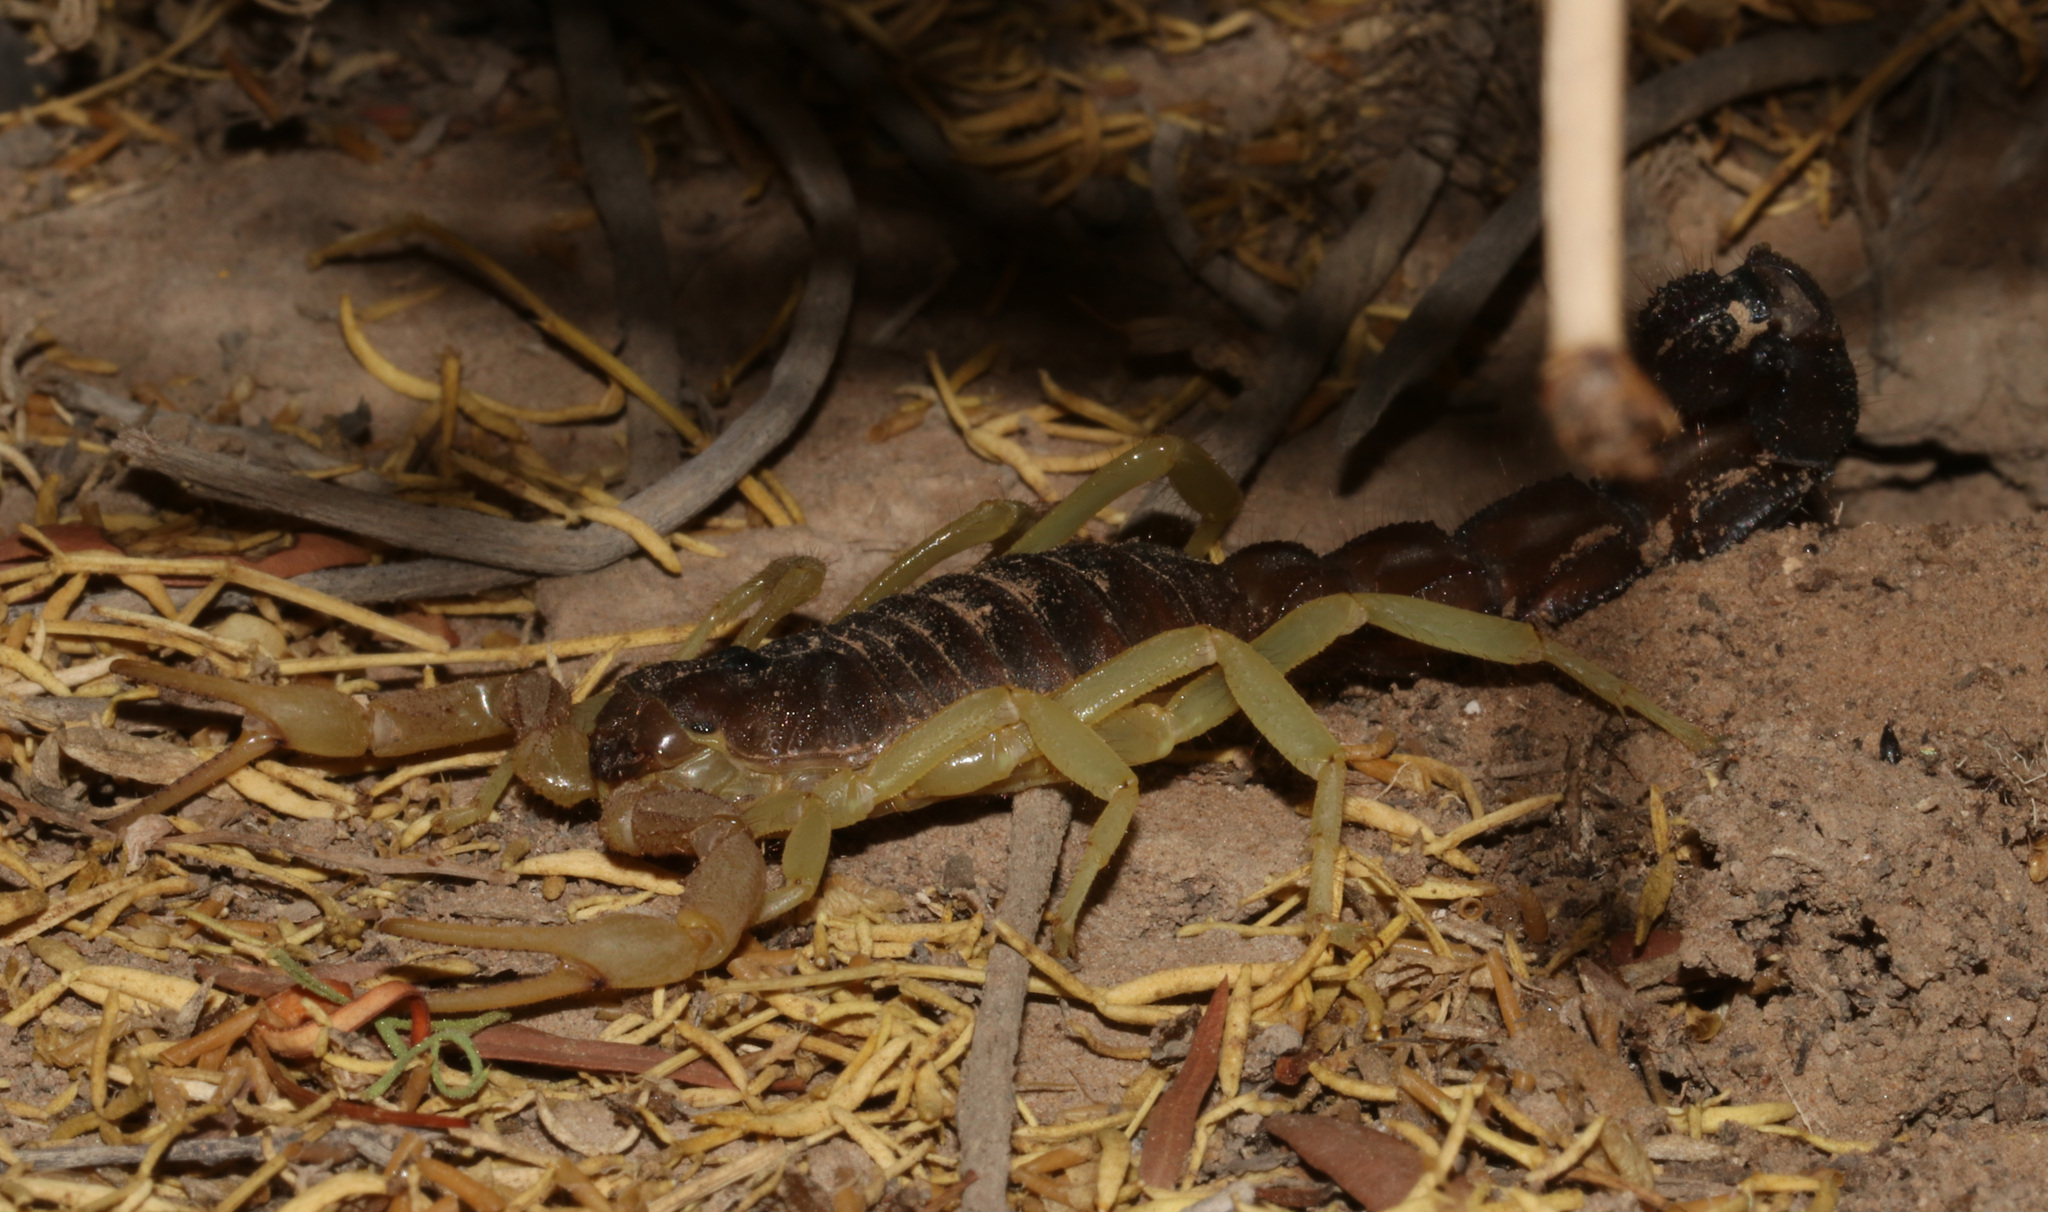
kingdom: Animalia
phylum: Arthropoda
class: Arachnida
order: Scorpiones
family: Buthidae
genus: Parabuthus
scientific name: Parabuthus schlechteri
